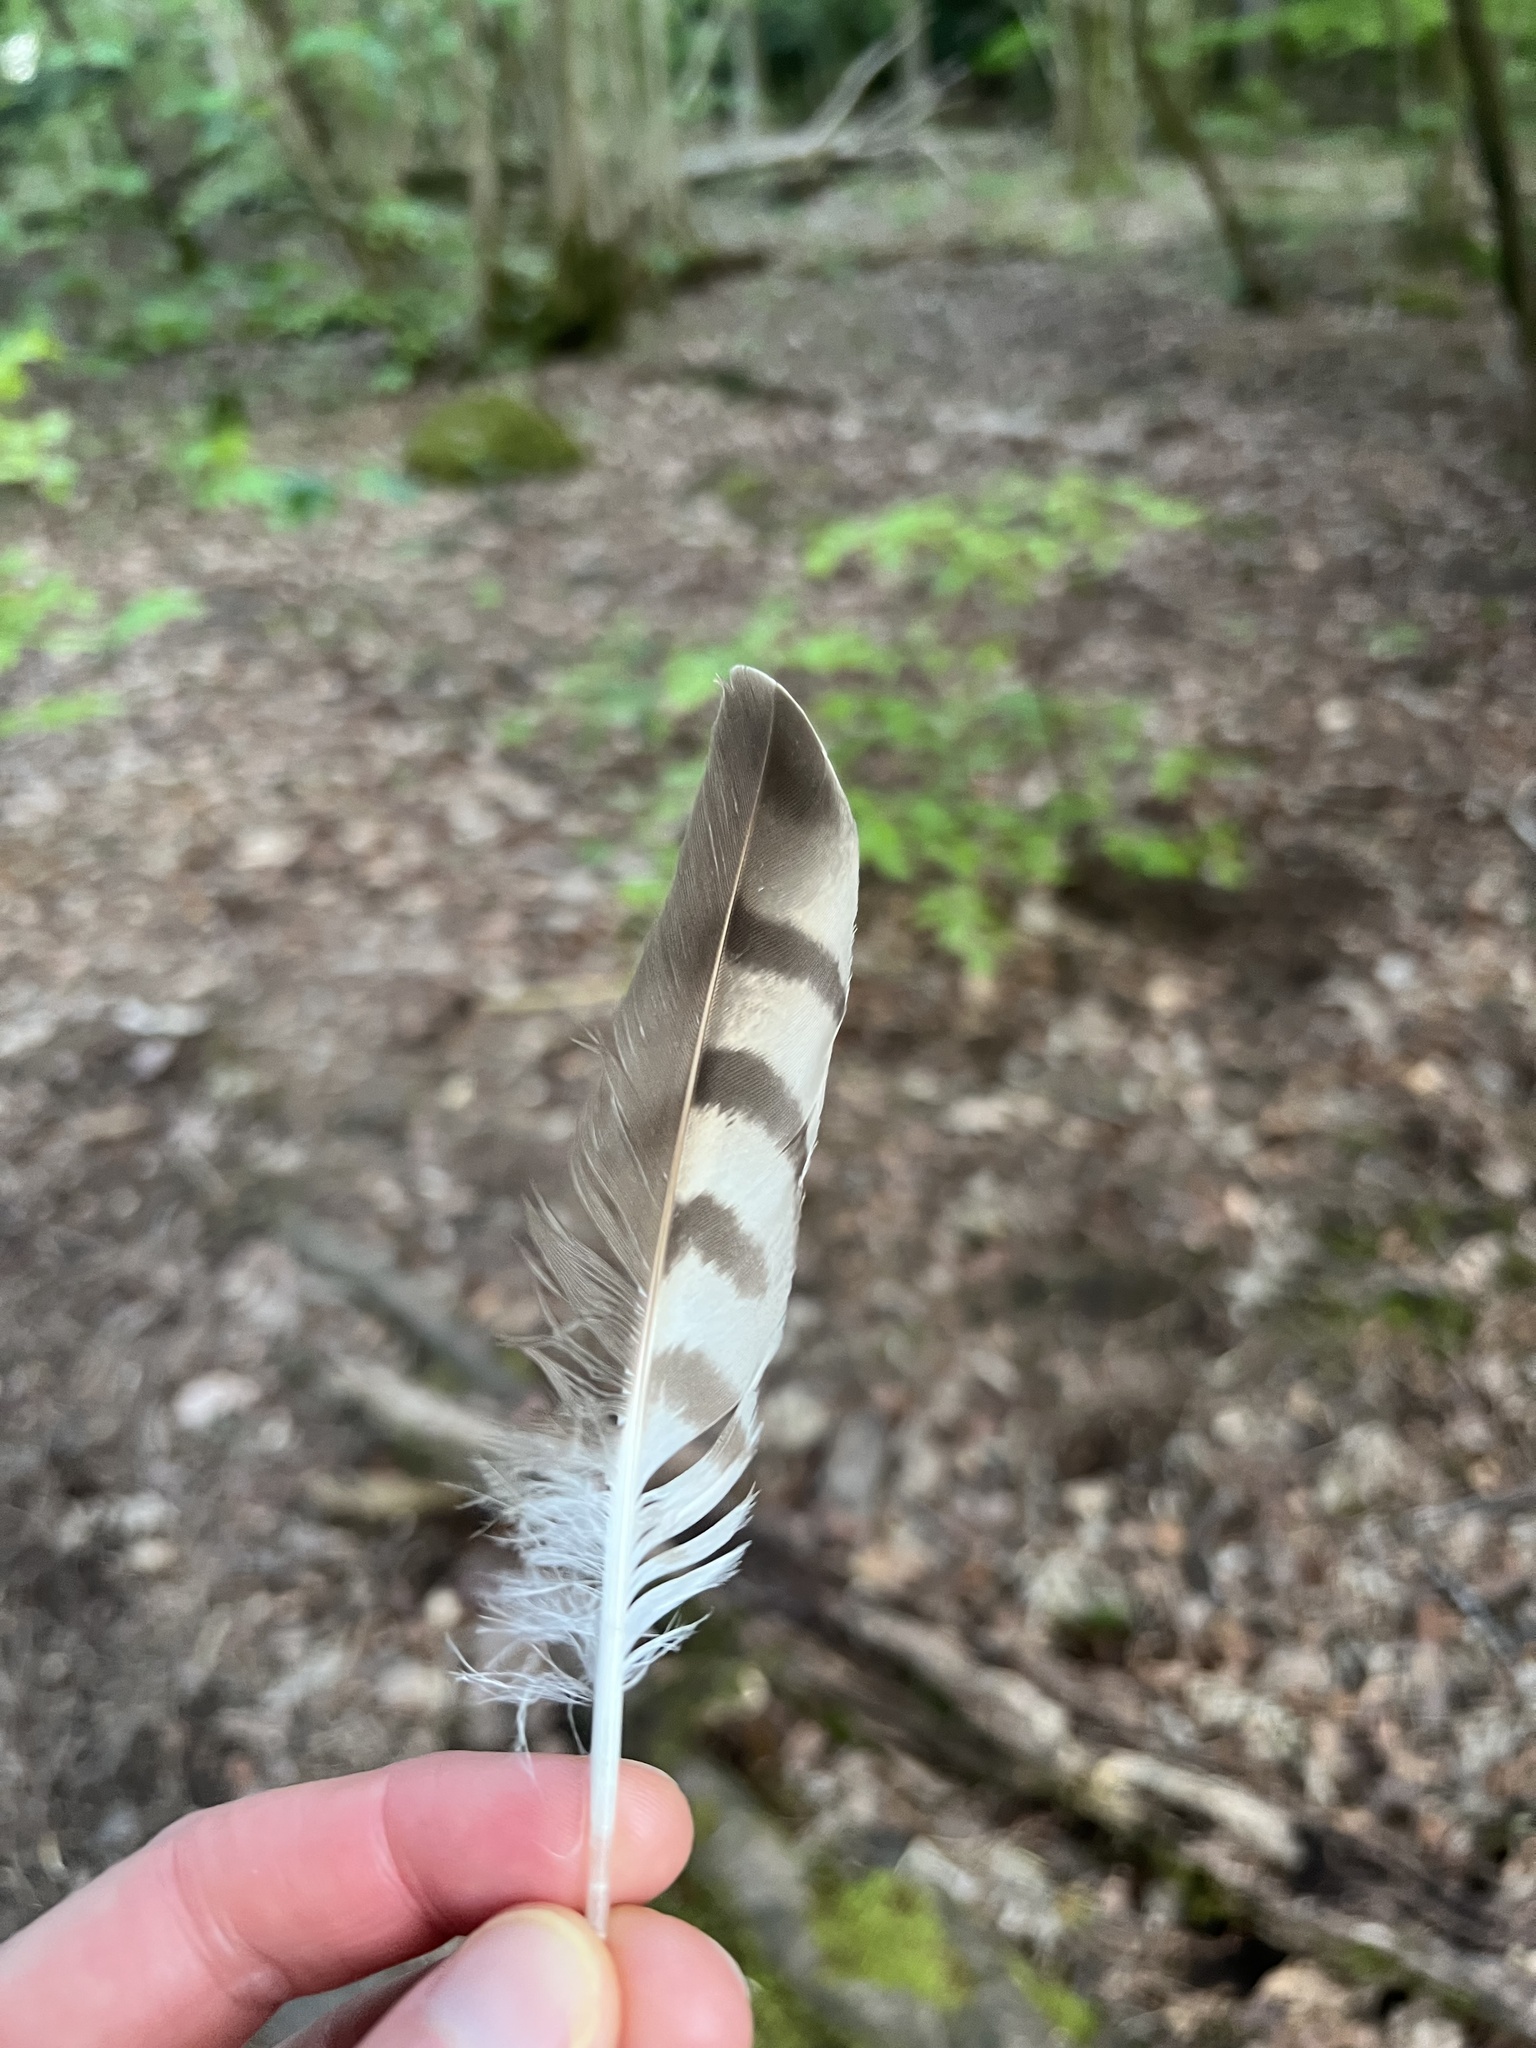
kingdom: Animalia
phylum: Chordata
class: Aves
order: Accipitriformes
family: Accipitridae
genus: Accipiter
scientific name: Accipiter nisus
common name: Eurasian sparrowhawk
